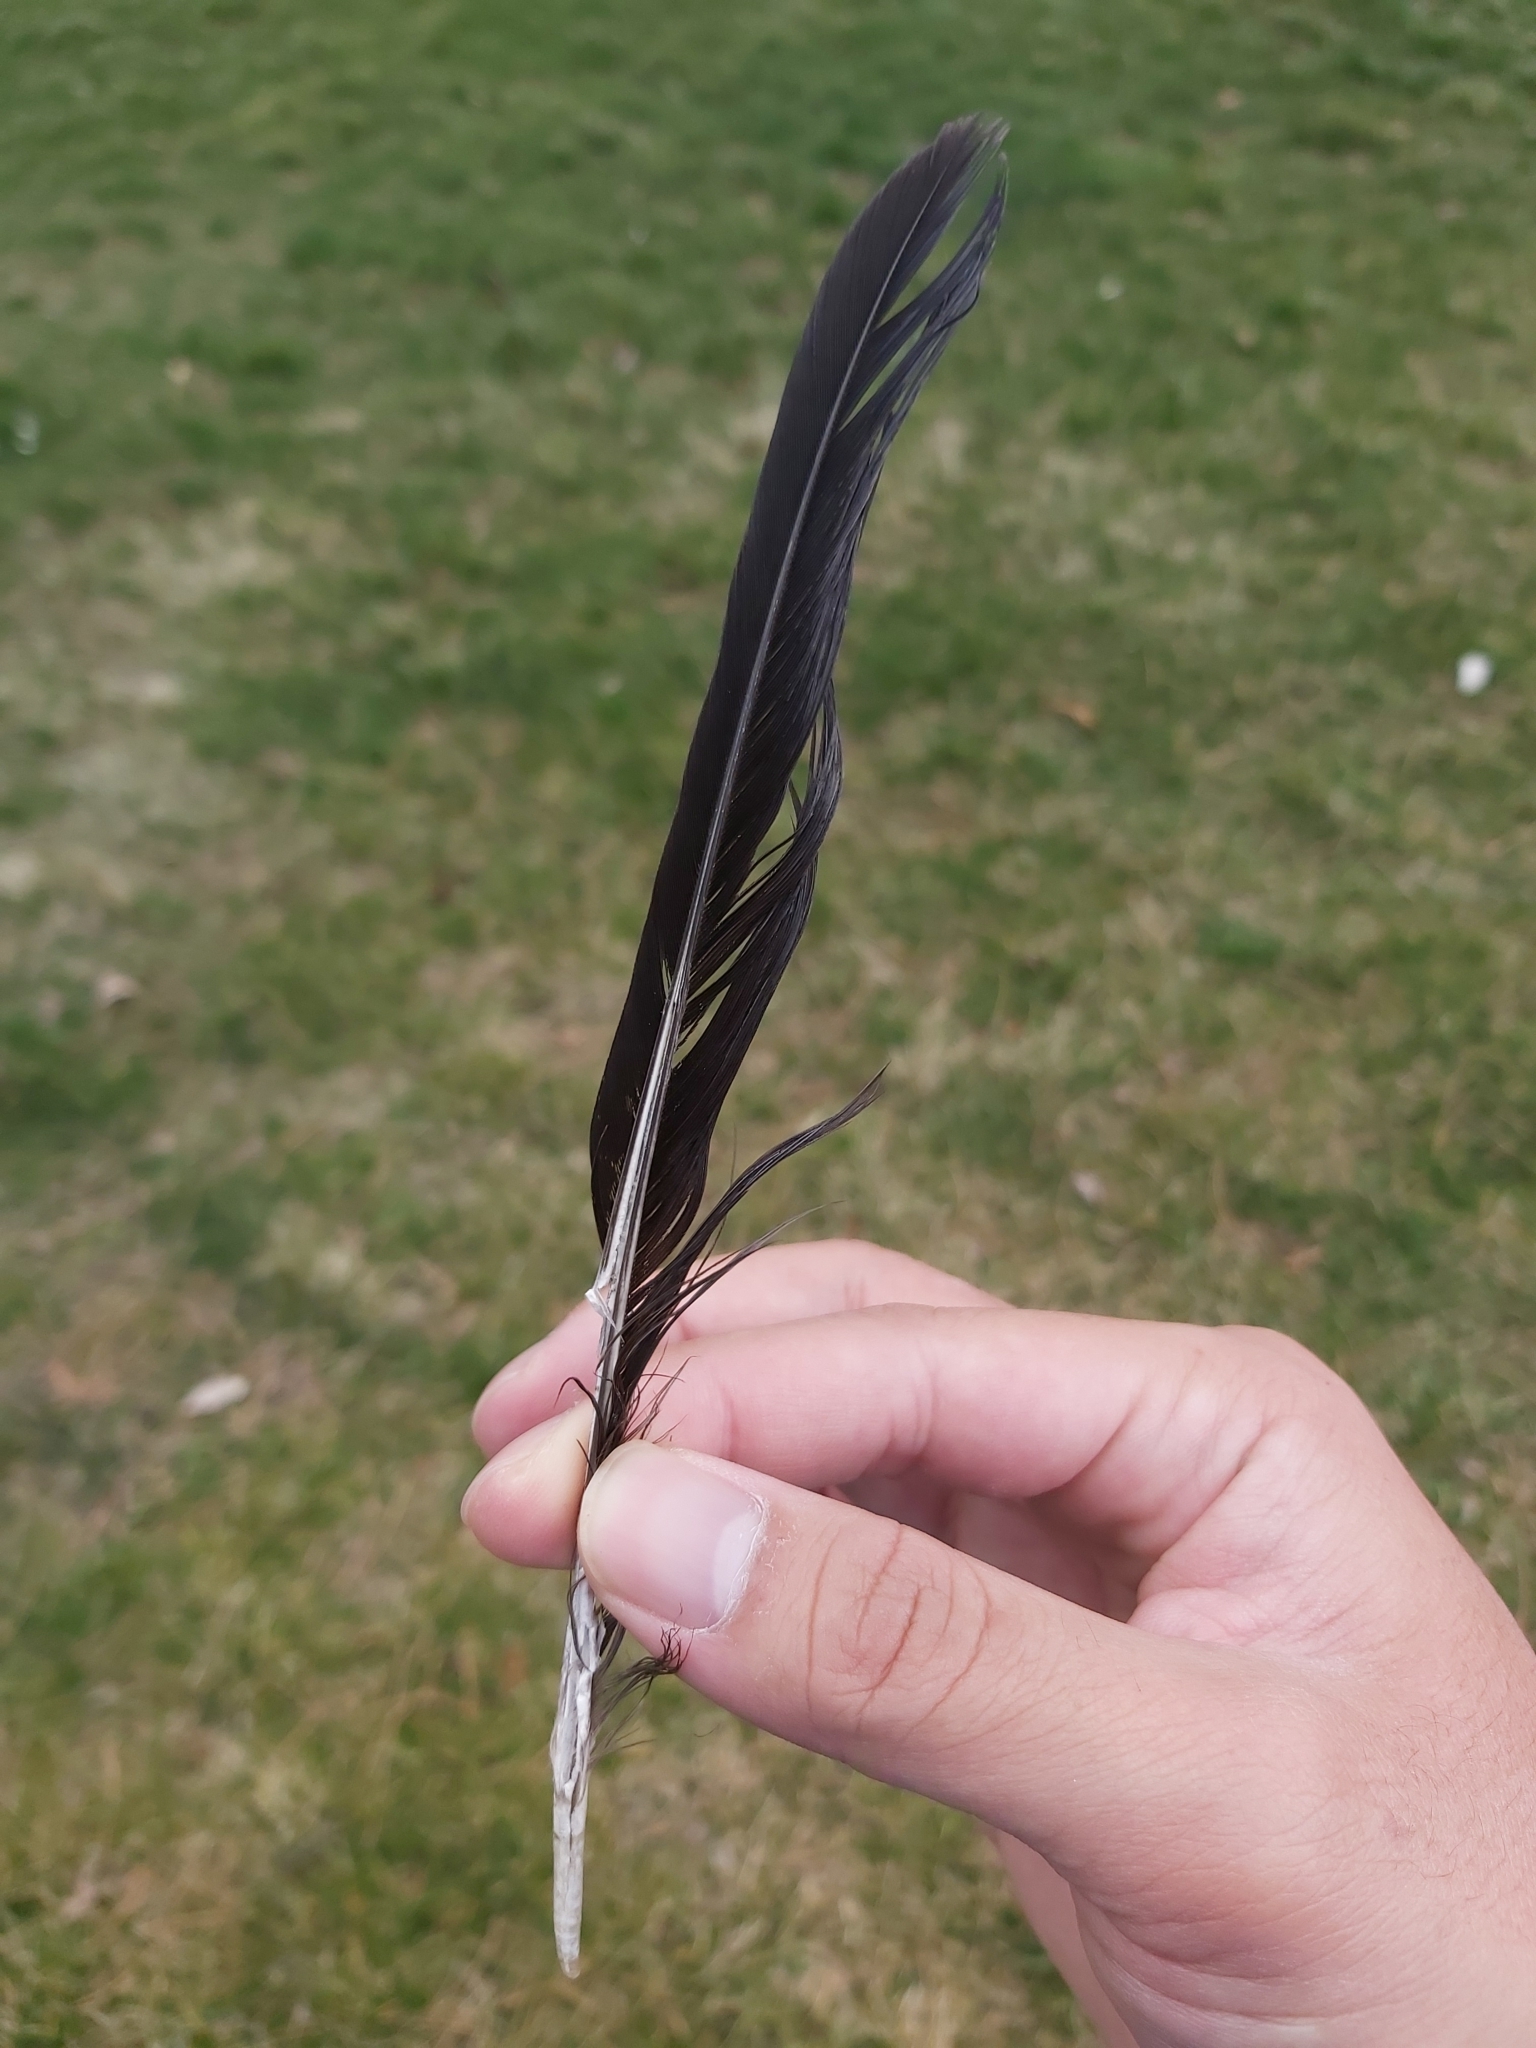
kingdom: Animalia
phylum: Chordata
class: Aves
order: Passeriformes
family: Corvidae
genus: Corvus
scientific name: Corvus cornix
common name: Hooded crow
